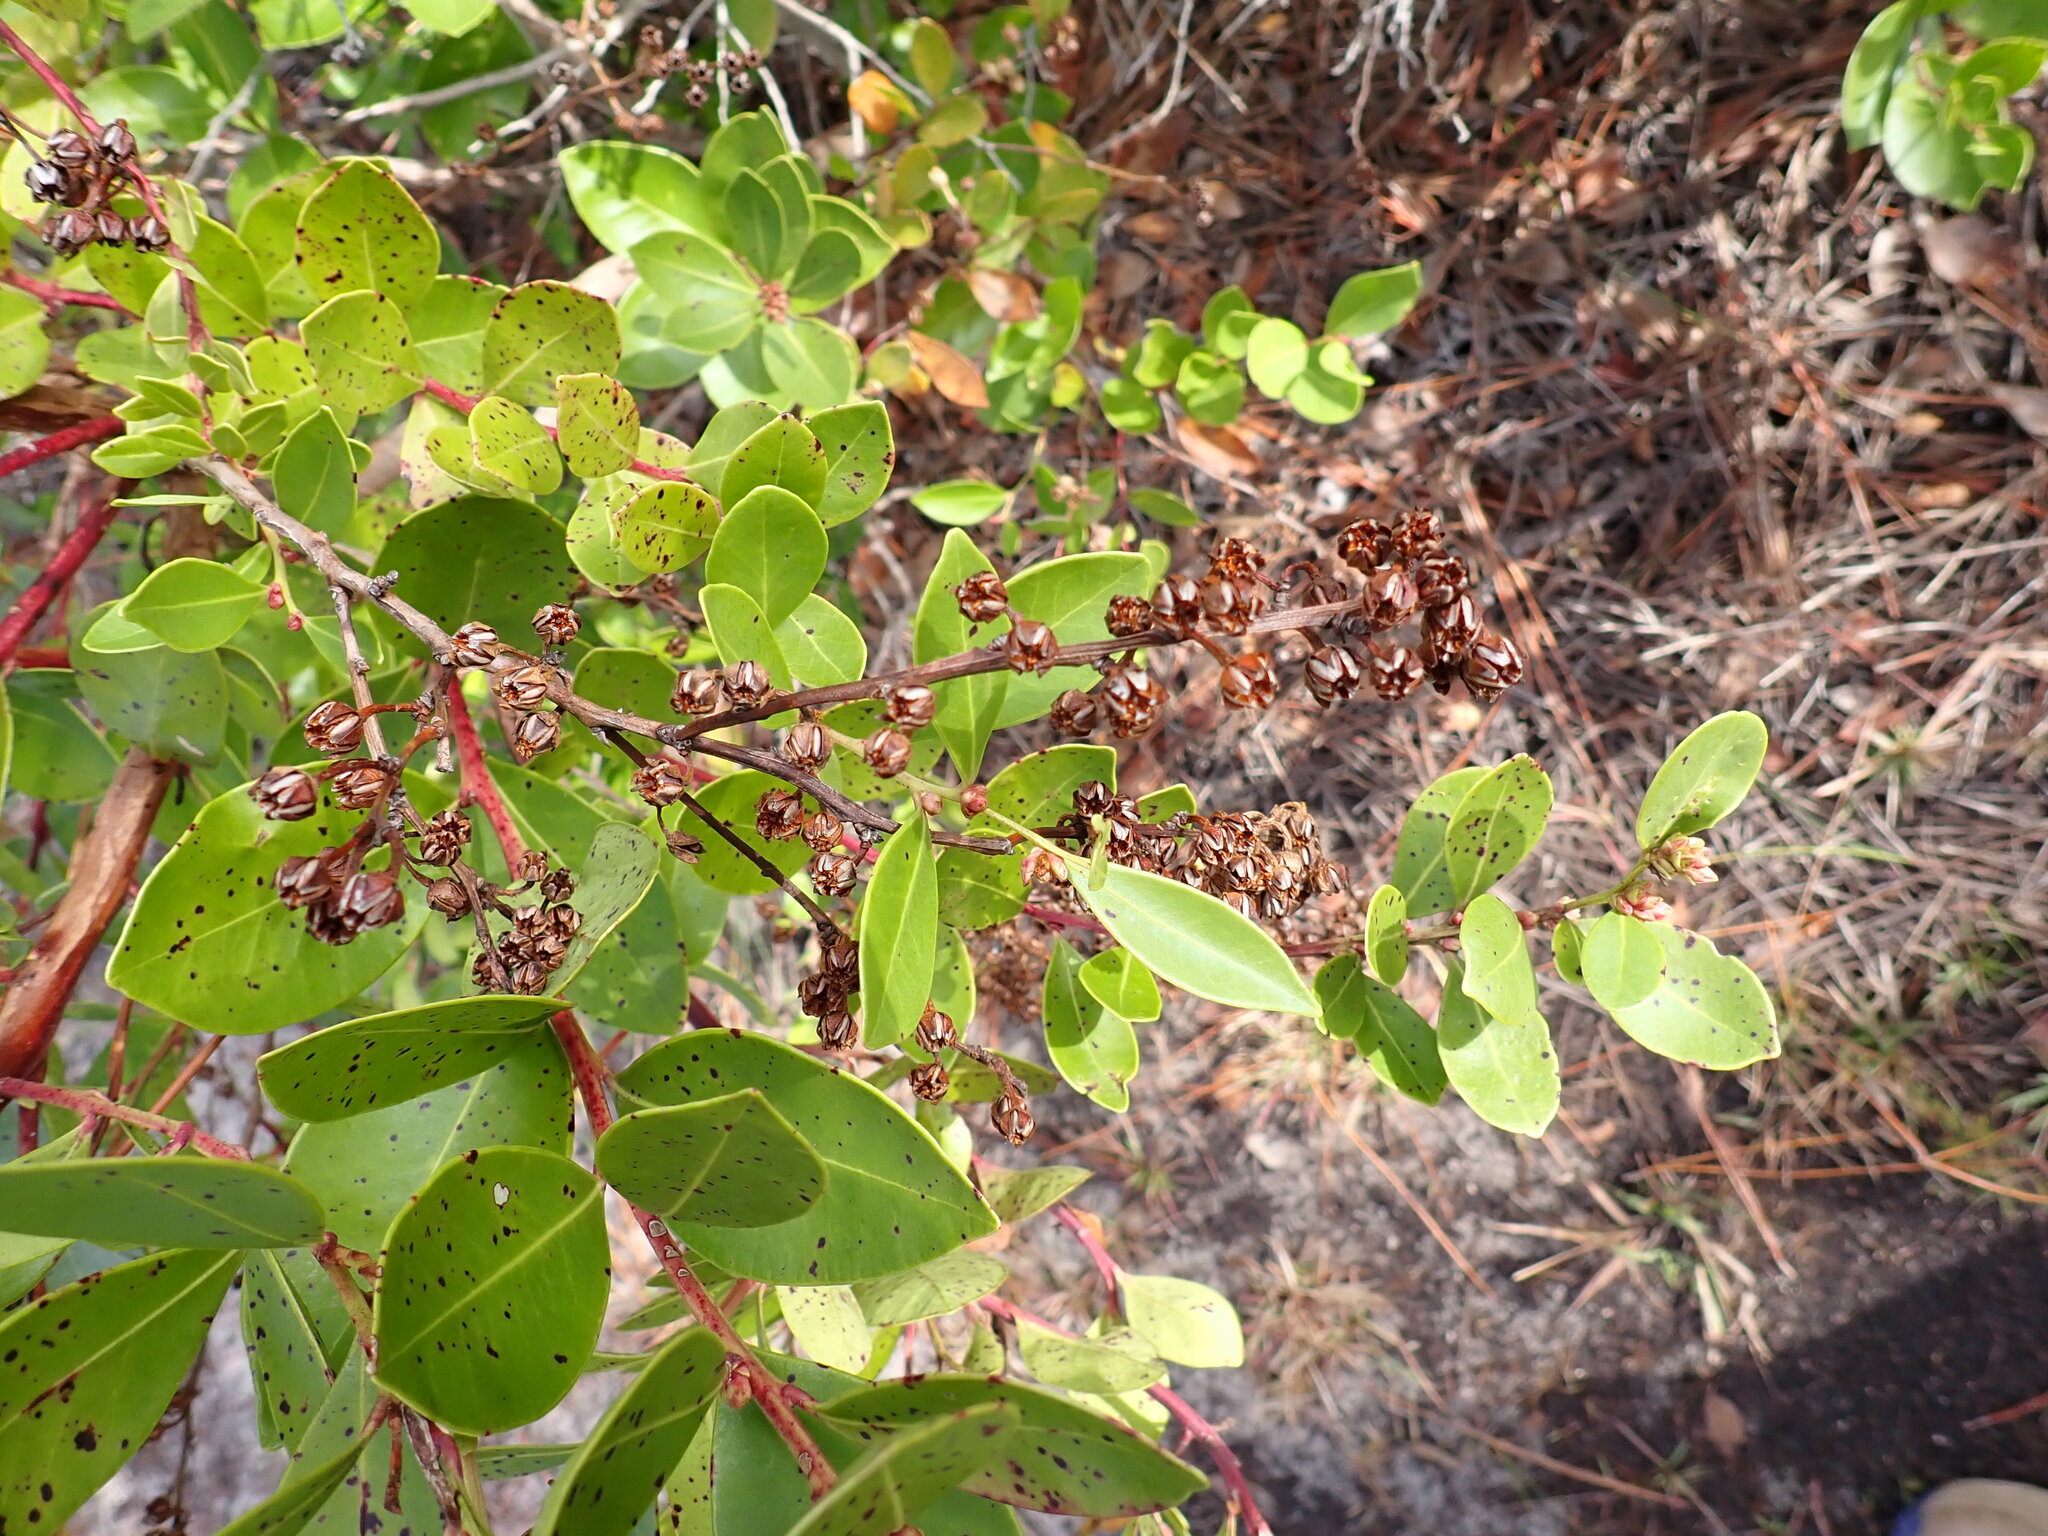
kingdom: Plantae
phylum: Tracheophyta
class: Magnoliopsida
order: Ericales
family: Ericaceae
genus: Lyonia
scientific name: Lyonia lucida
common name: Fetterbush
